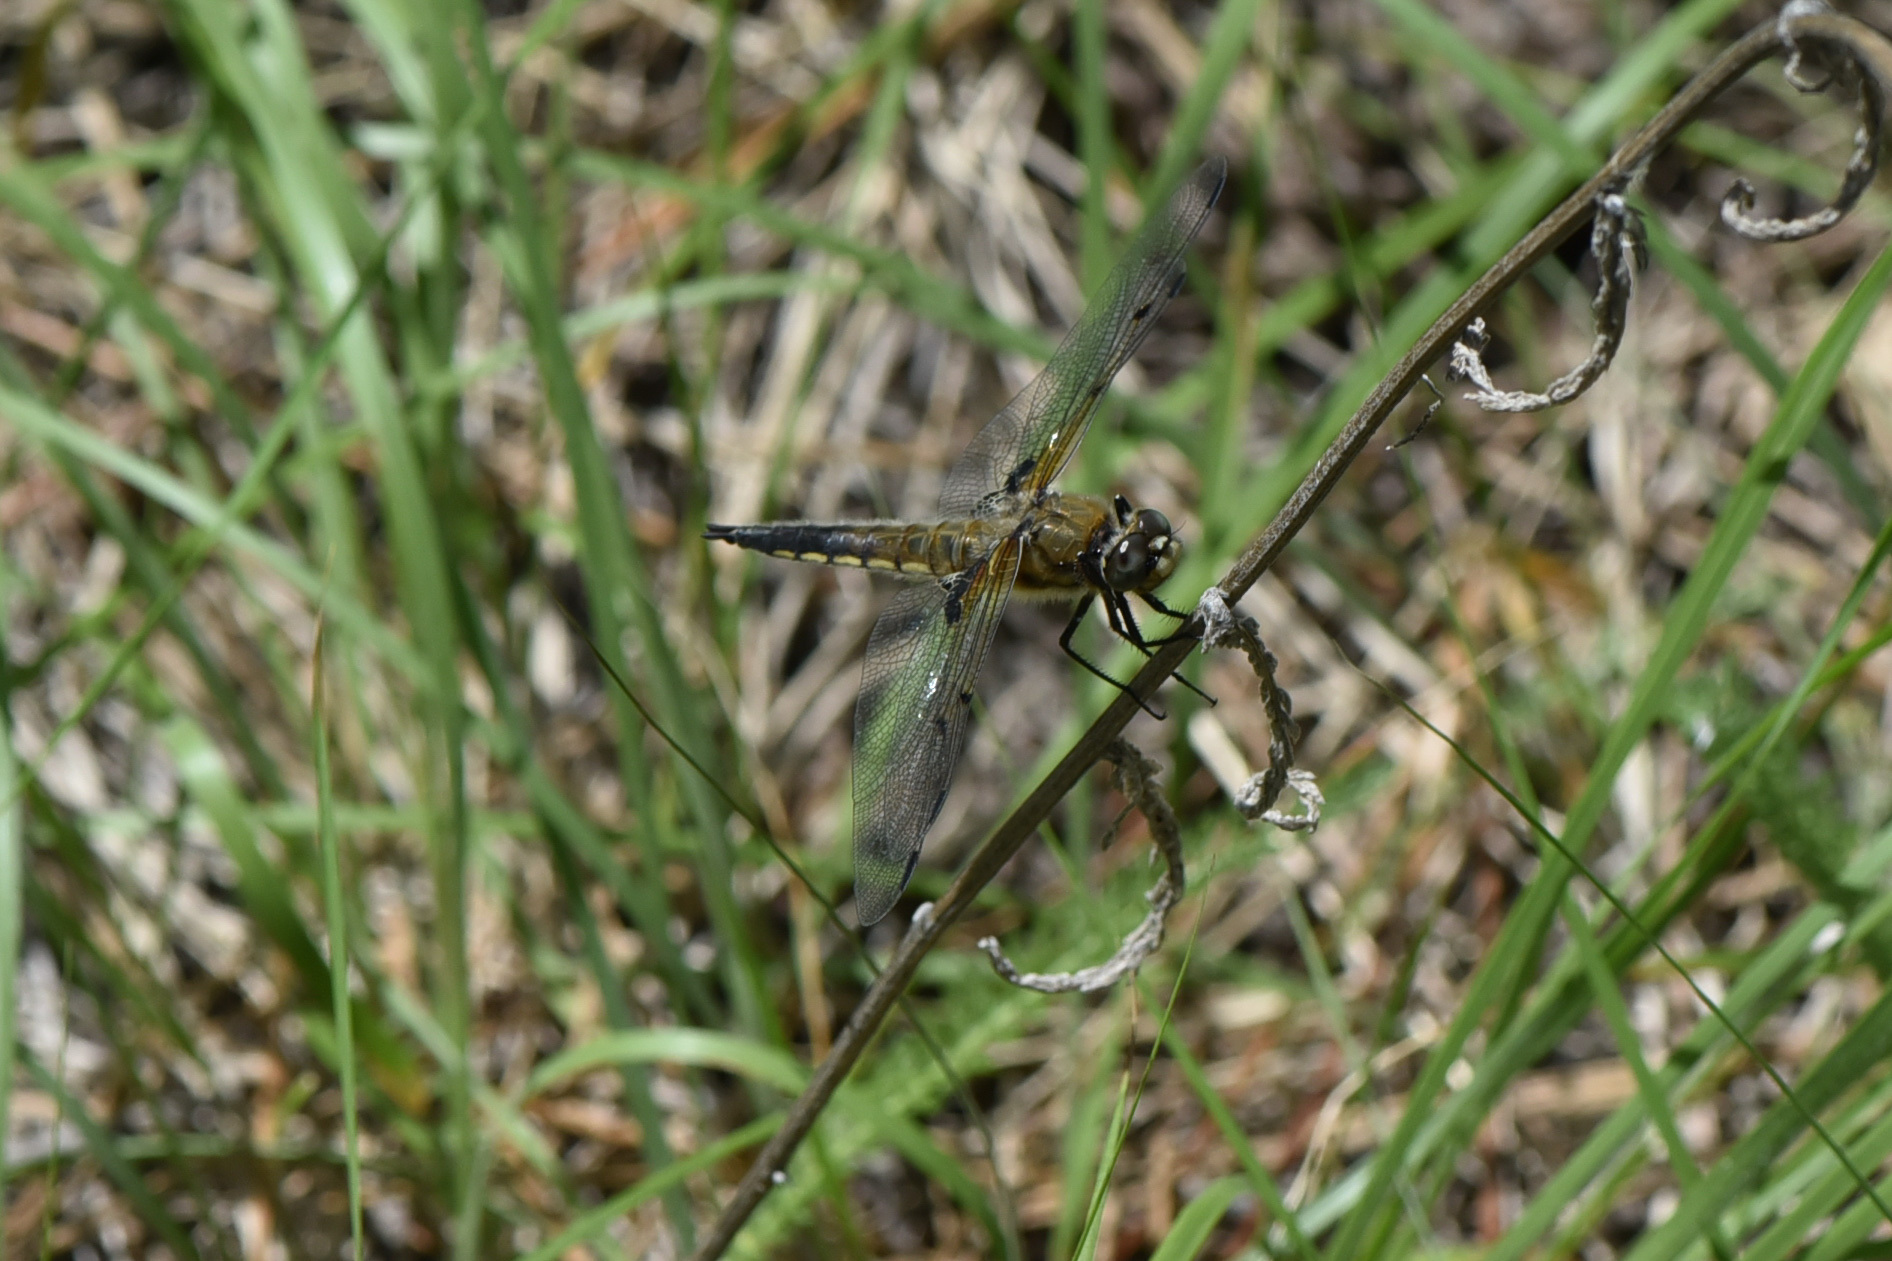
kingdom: Animalia
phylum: Arthropoda
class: Insecta
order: Odonata
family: Libellulidae
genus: Libellula
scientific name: Libellula quadrimaculata
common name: Four-spotted chaser
